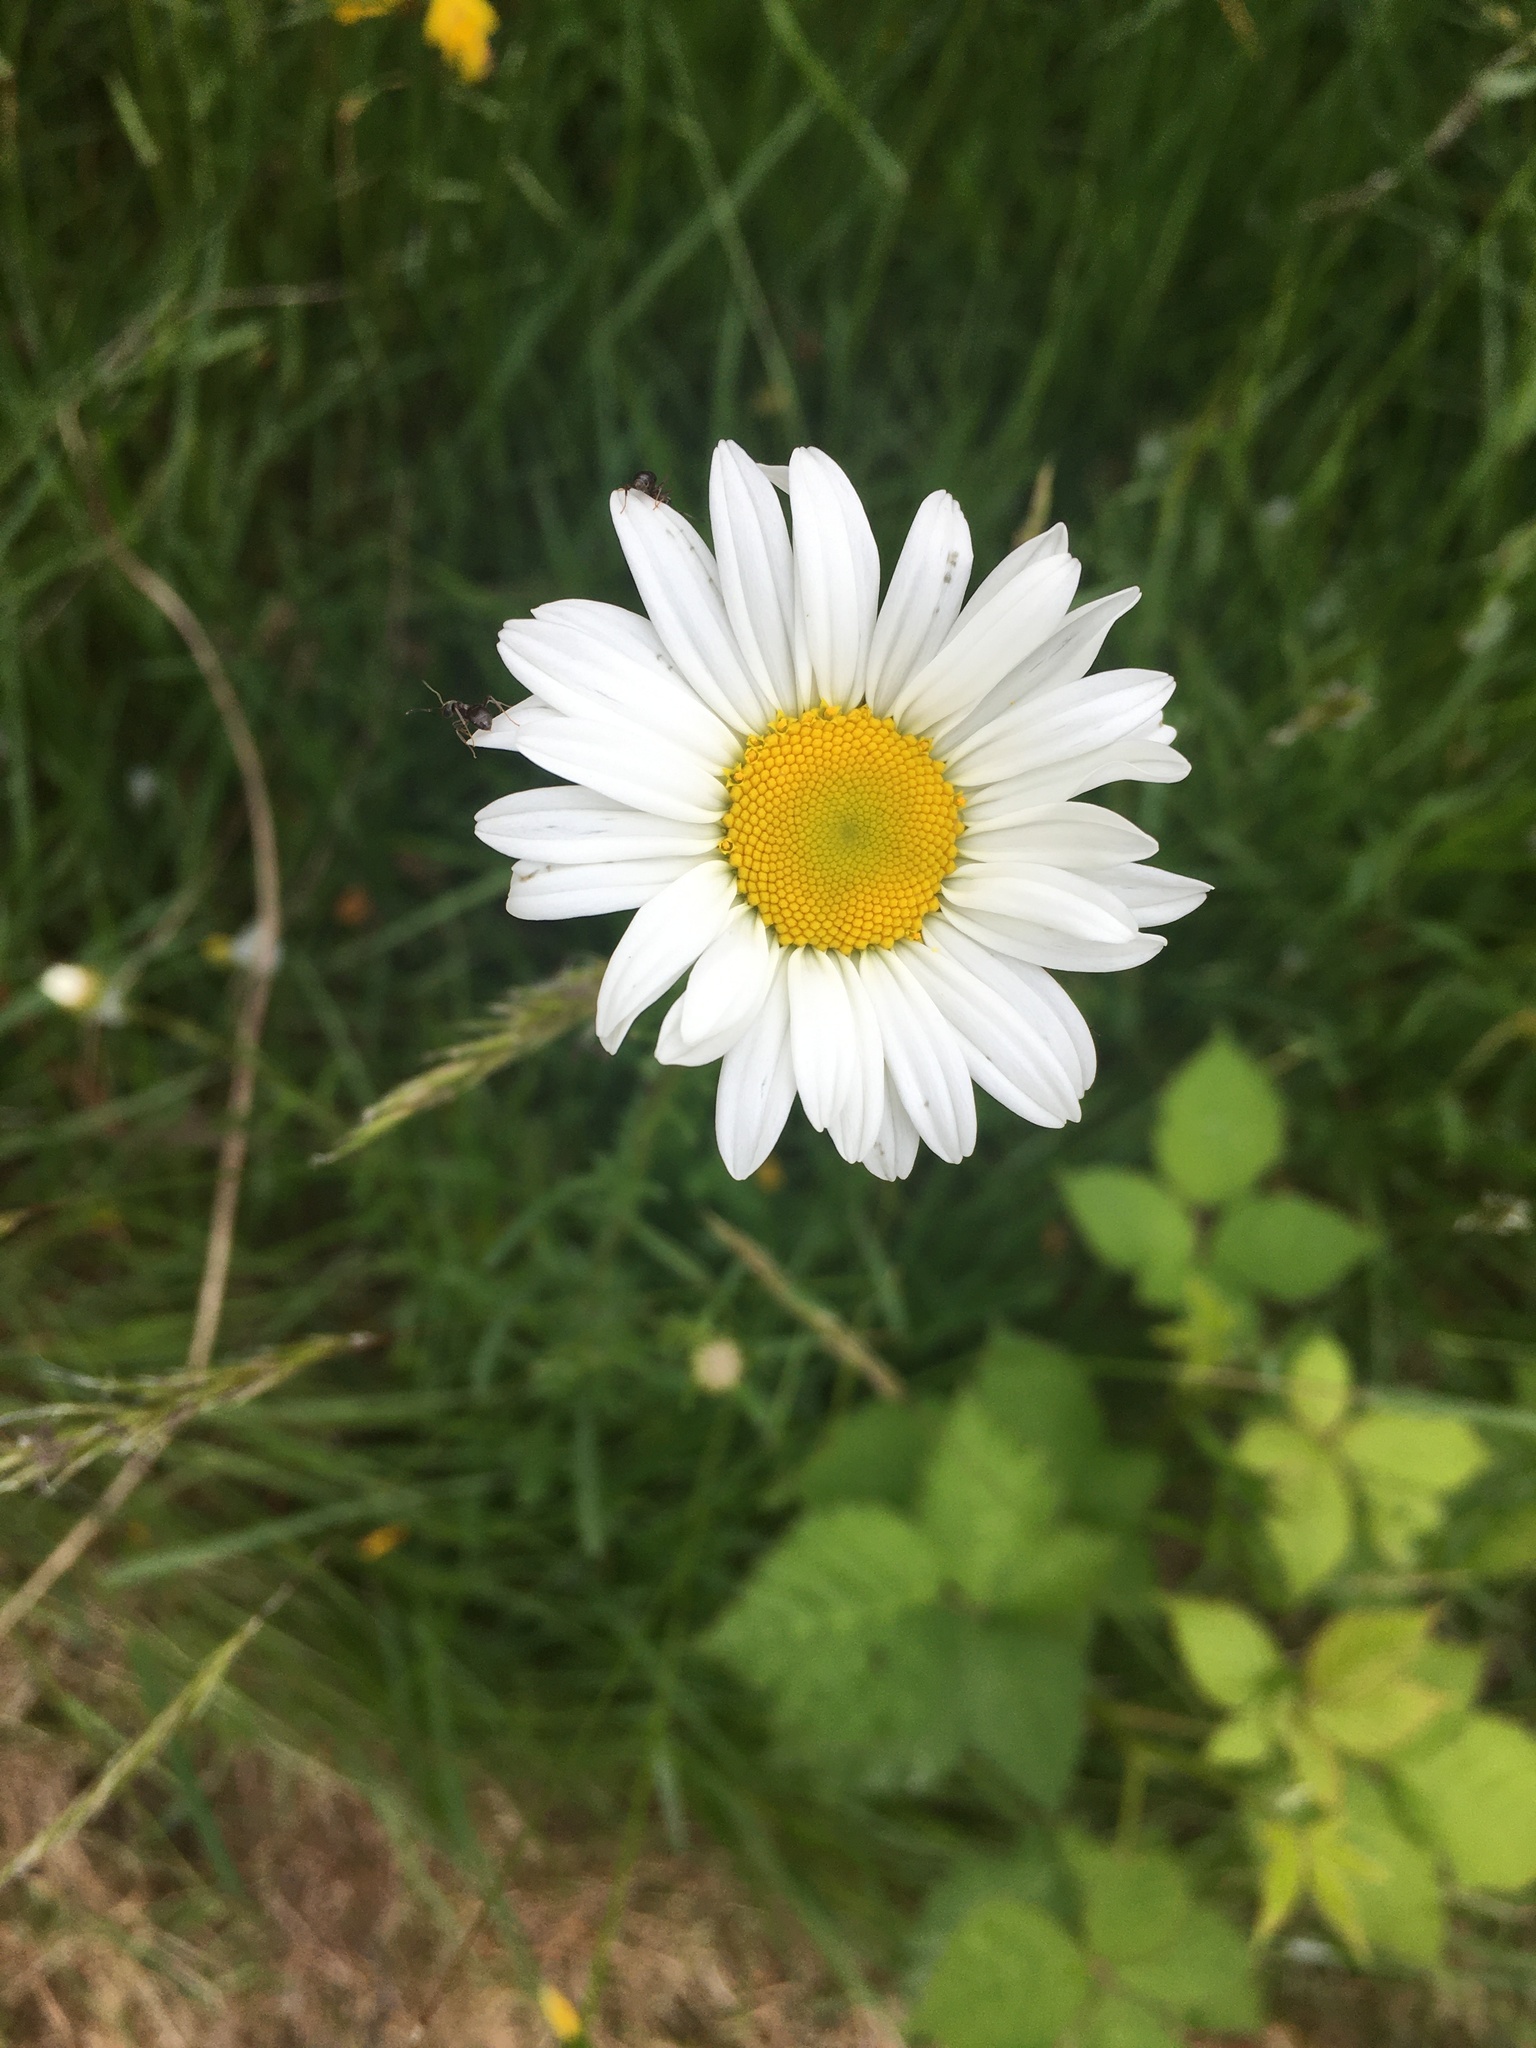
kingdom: Plantae
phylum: Tracheophyta
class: Magnoliopsida
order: Asterales
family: Asteraceae
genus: Leucanthemum
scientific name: Leucanthemum vulgare
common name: Oxeye daisy
